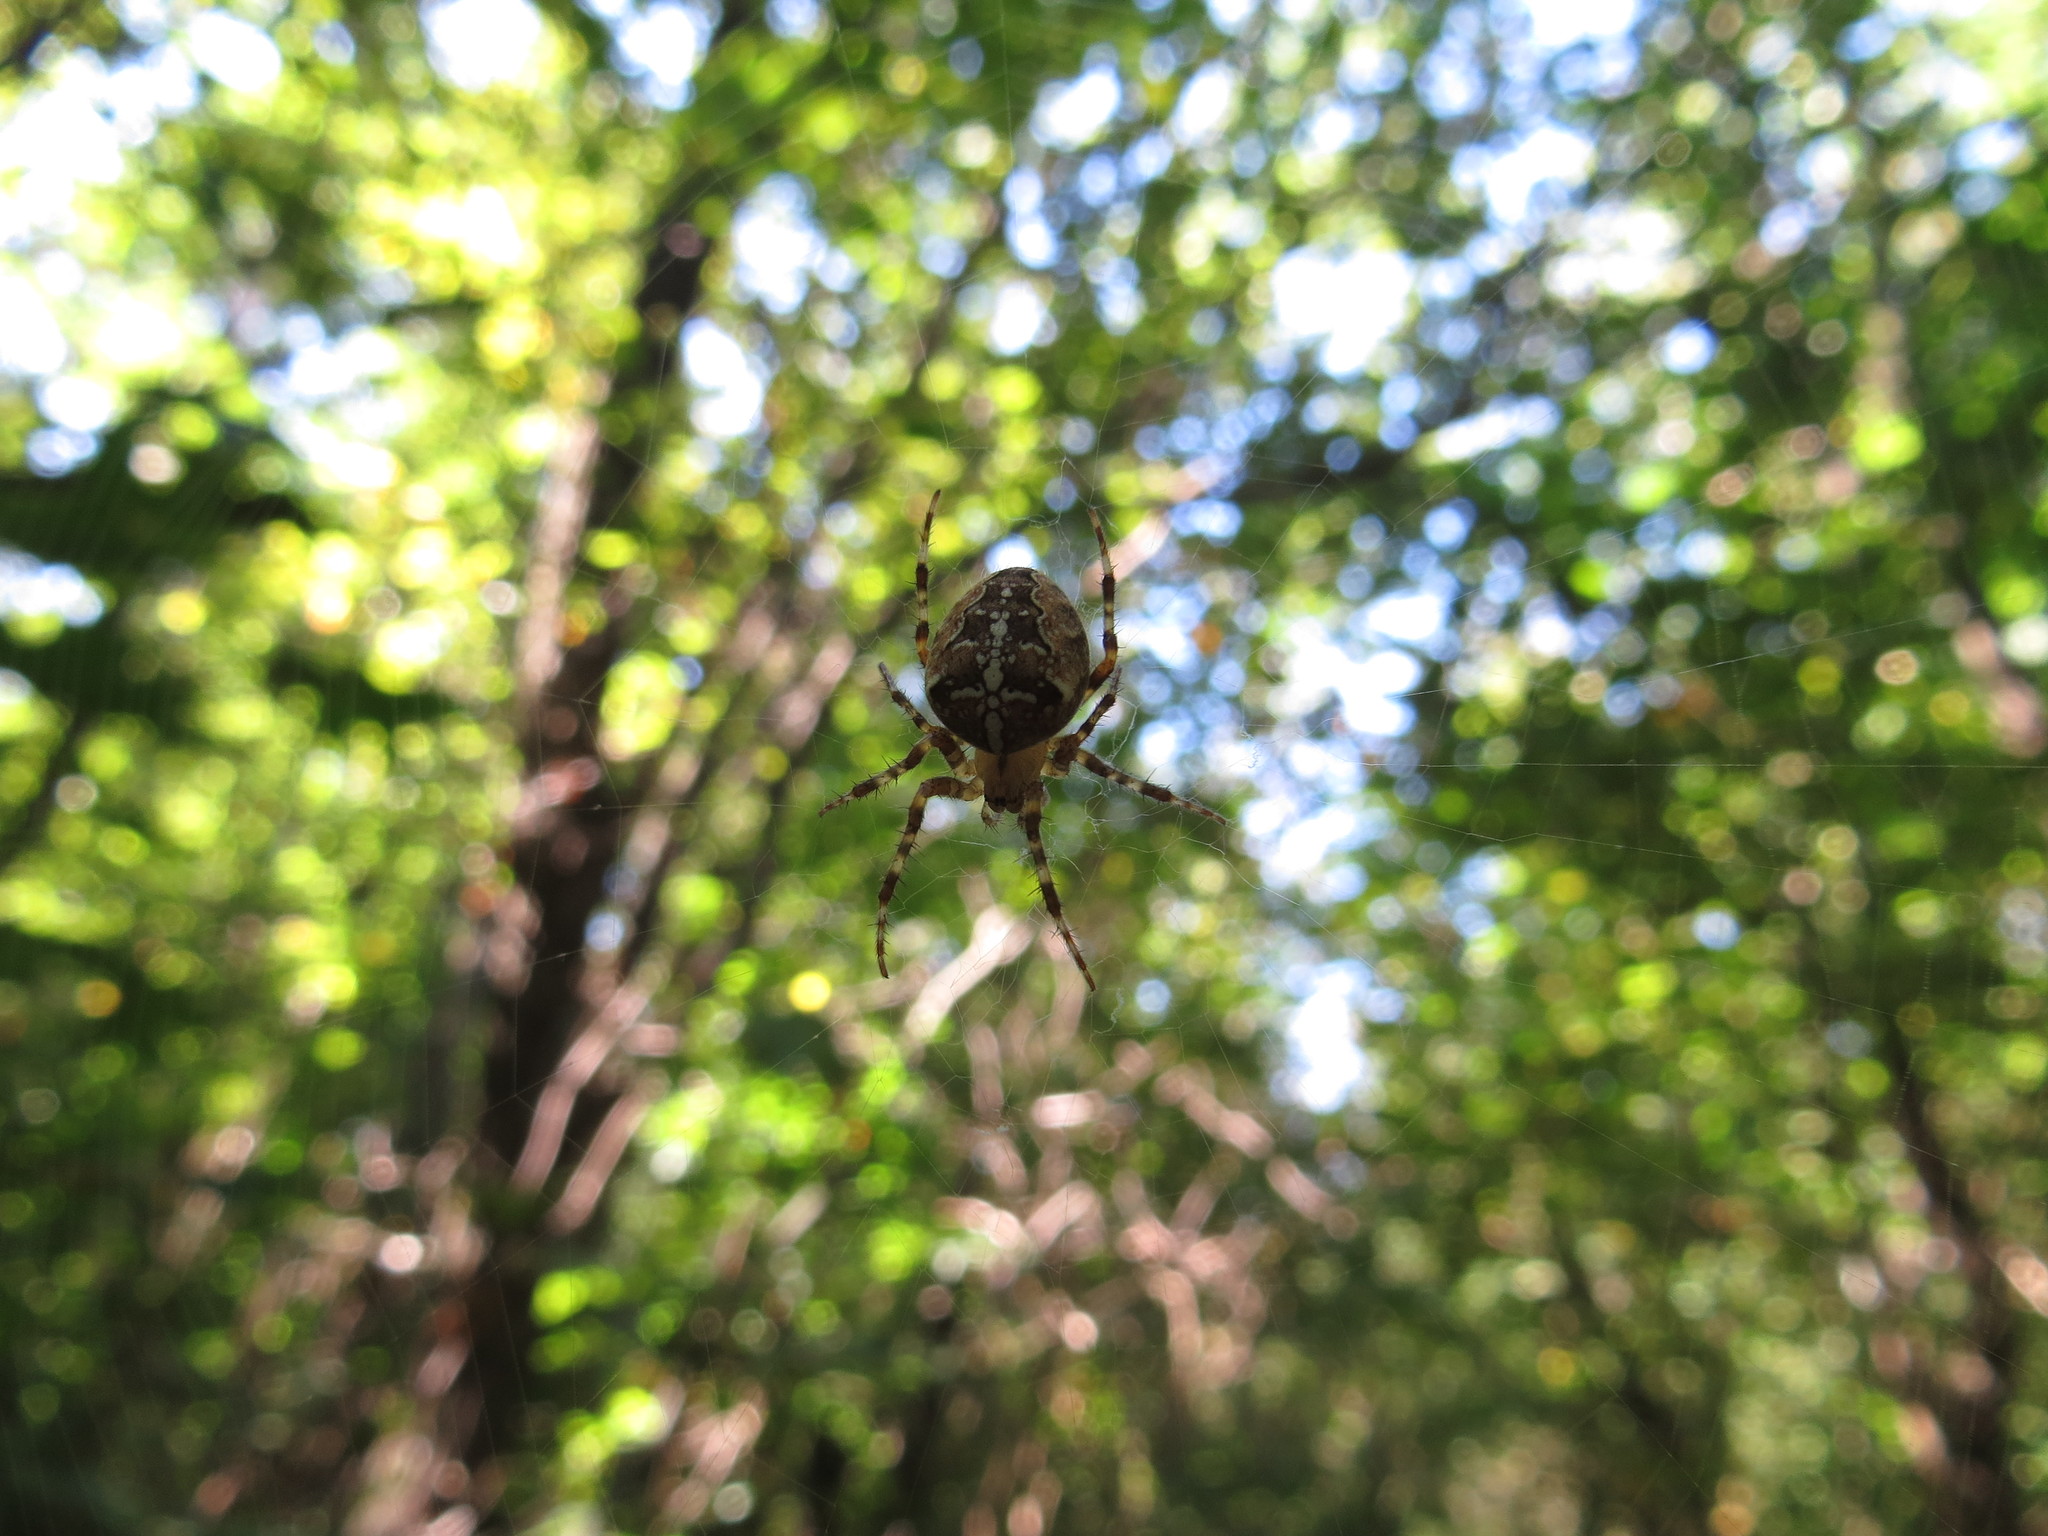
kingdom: Animalia
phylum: Arthropoda
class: Arachnida
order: Araneae
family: Araneidae
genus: Araneus
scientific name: Araneus diadematus
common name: Cross orbweaver
